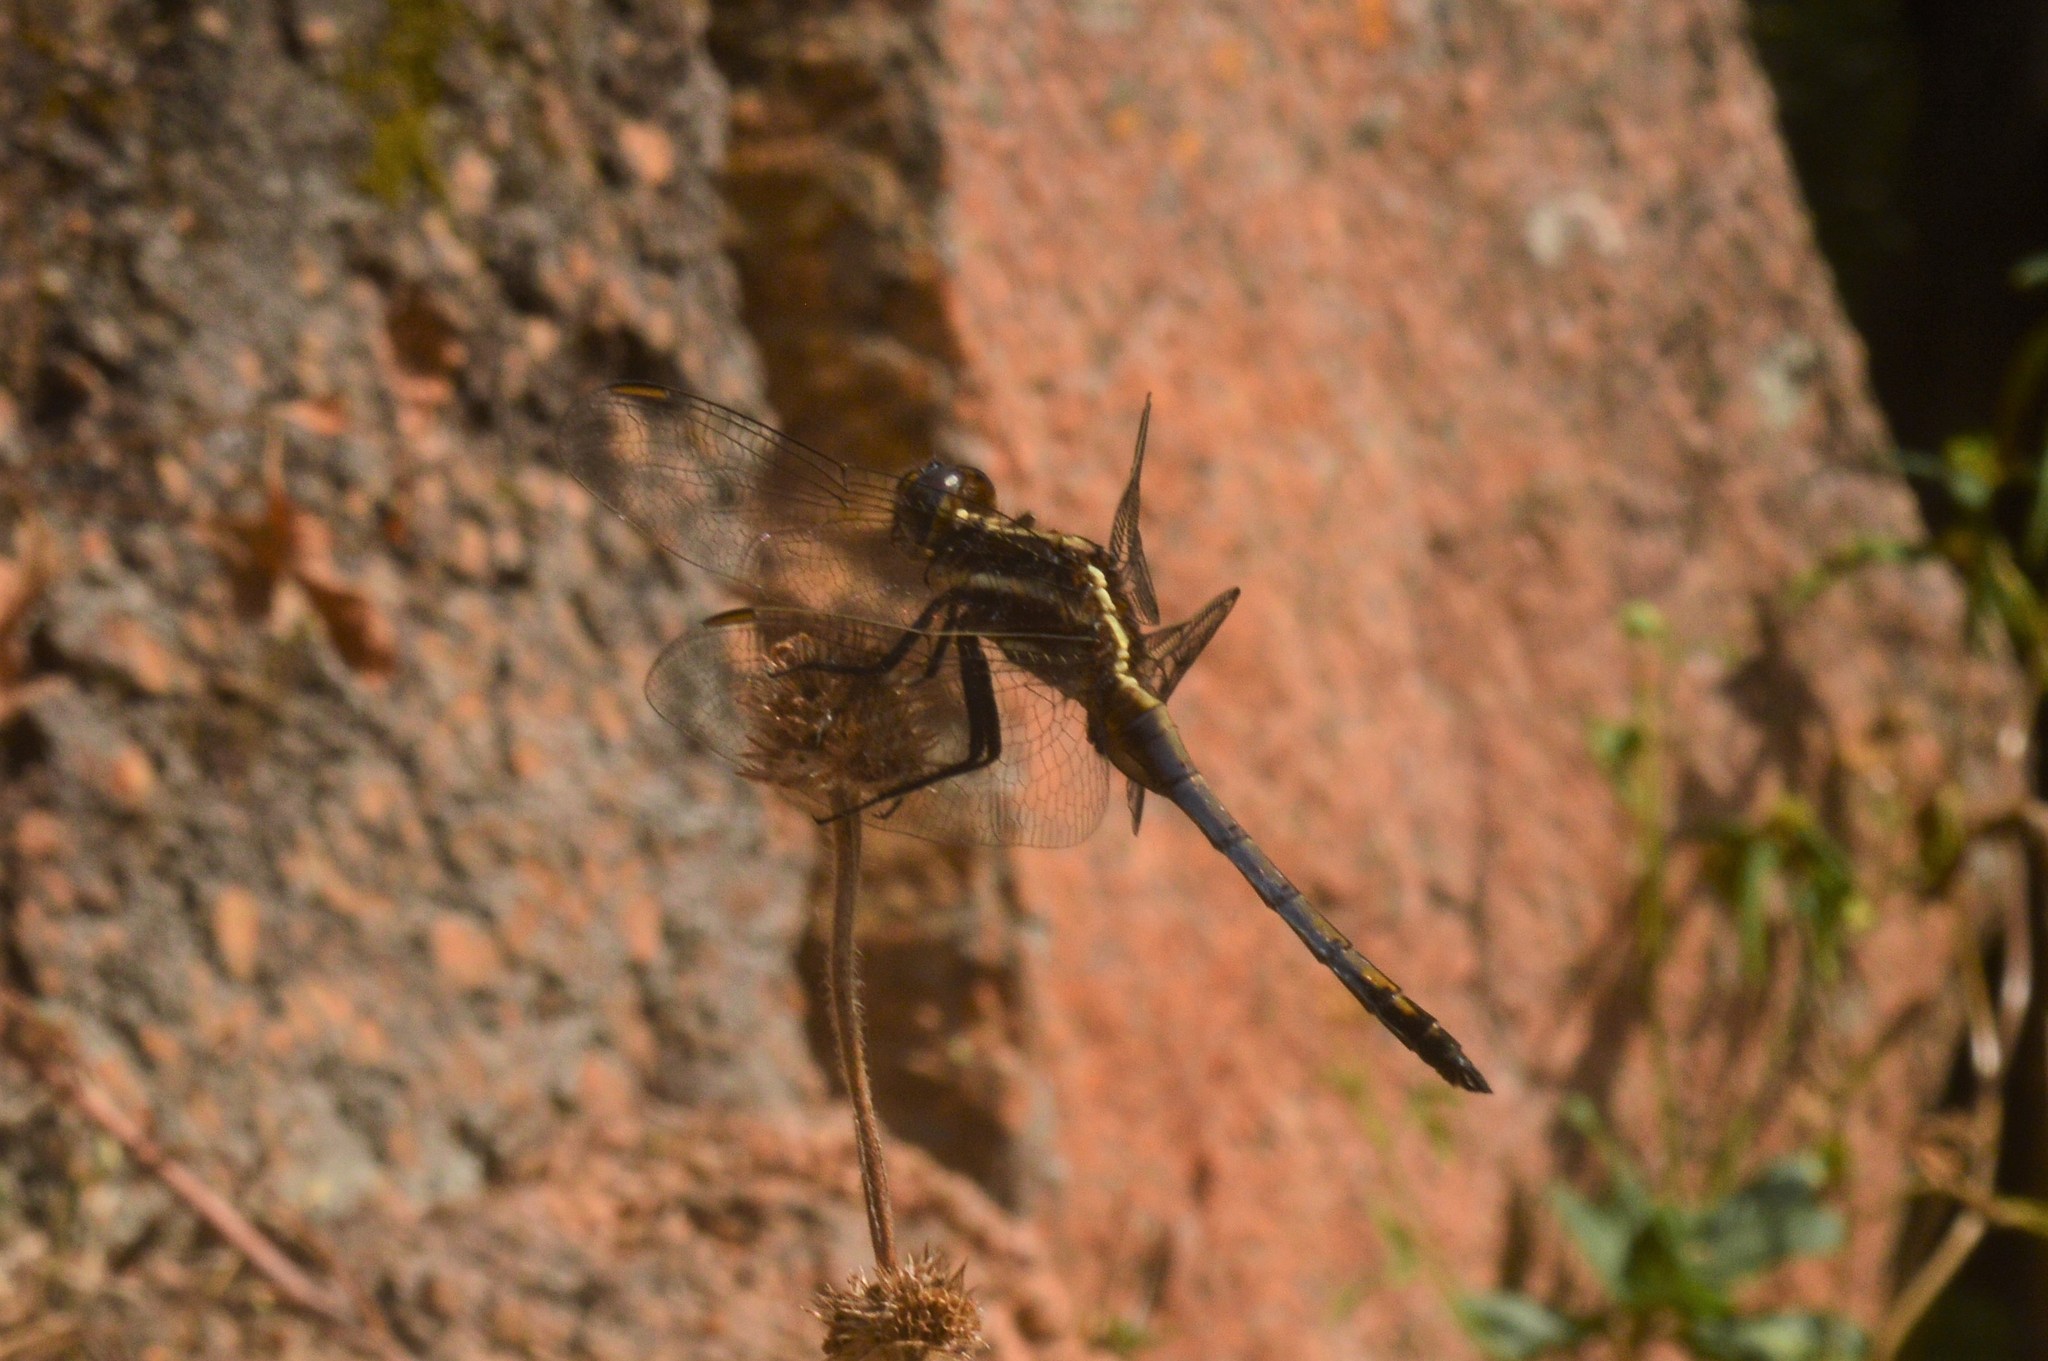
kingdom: Animalia
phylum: Arthropoda
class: Insecta
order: Odonata
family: Libellulidae
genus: Orthetrum
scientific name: Orthetrum glaucum
